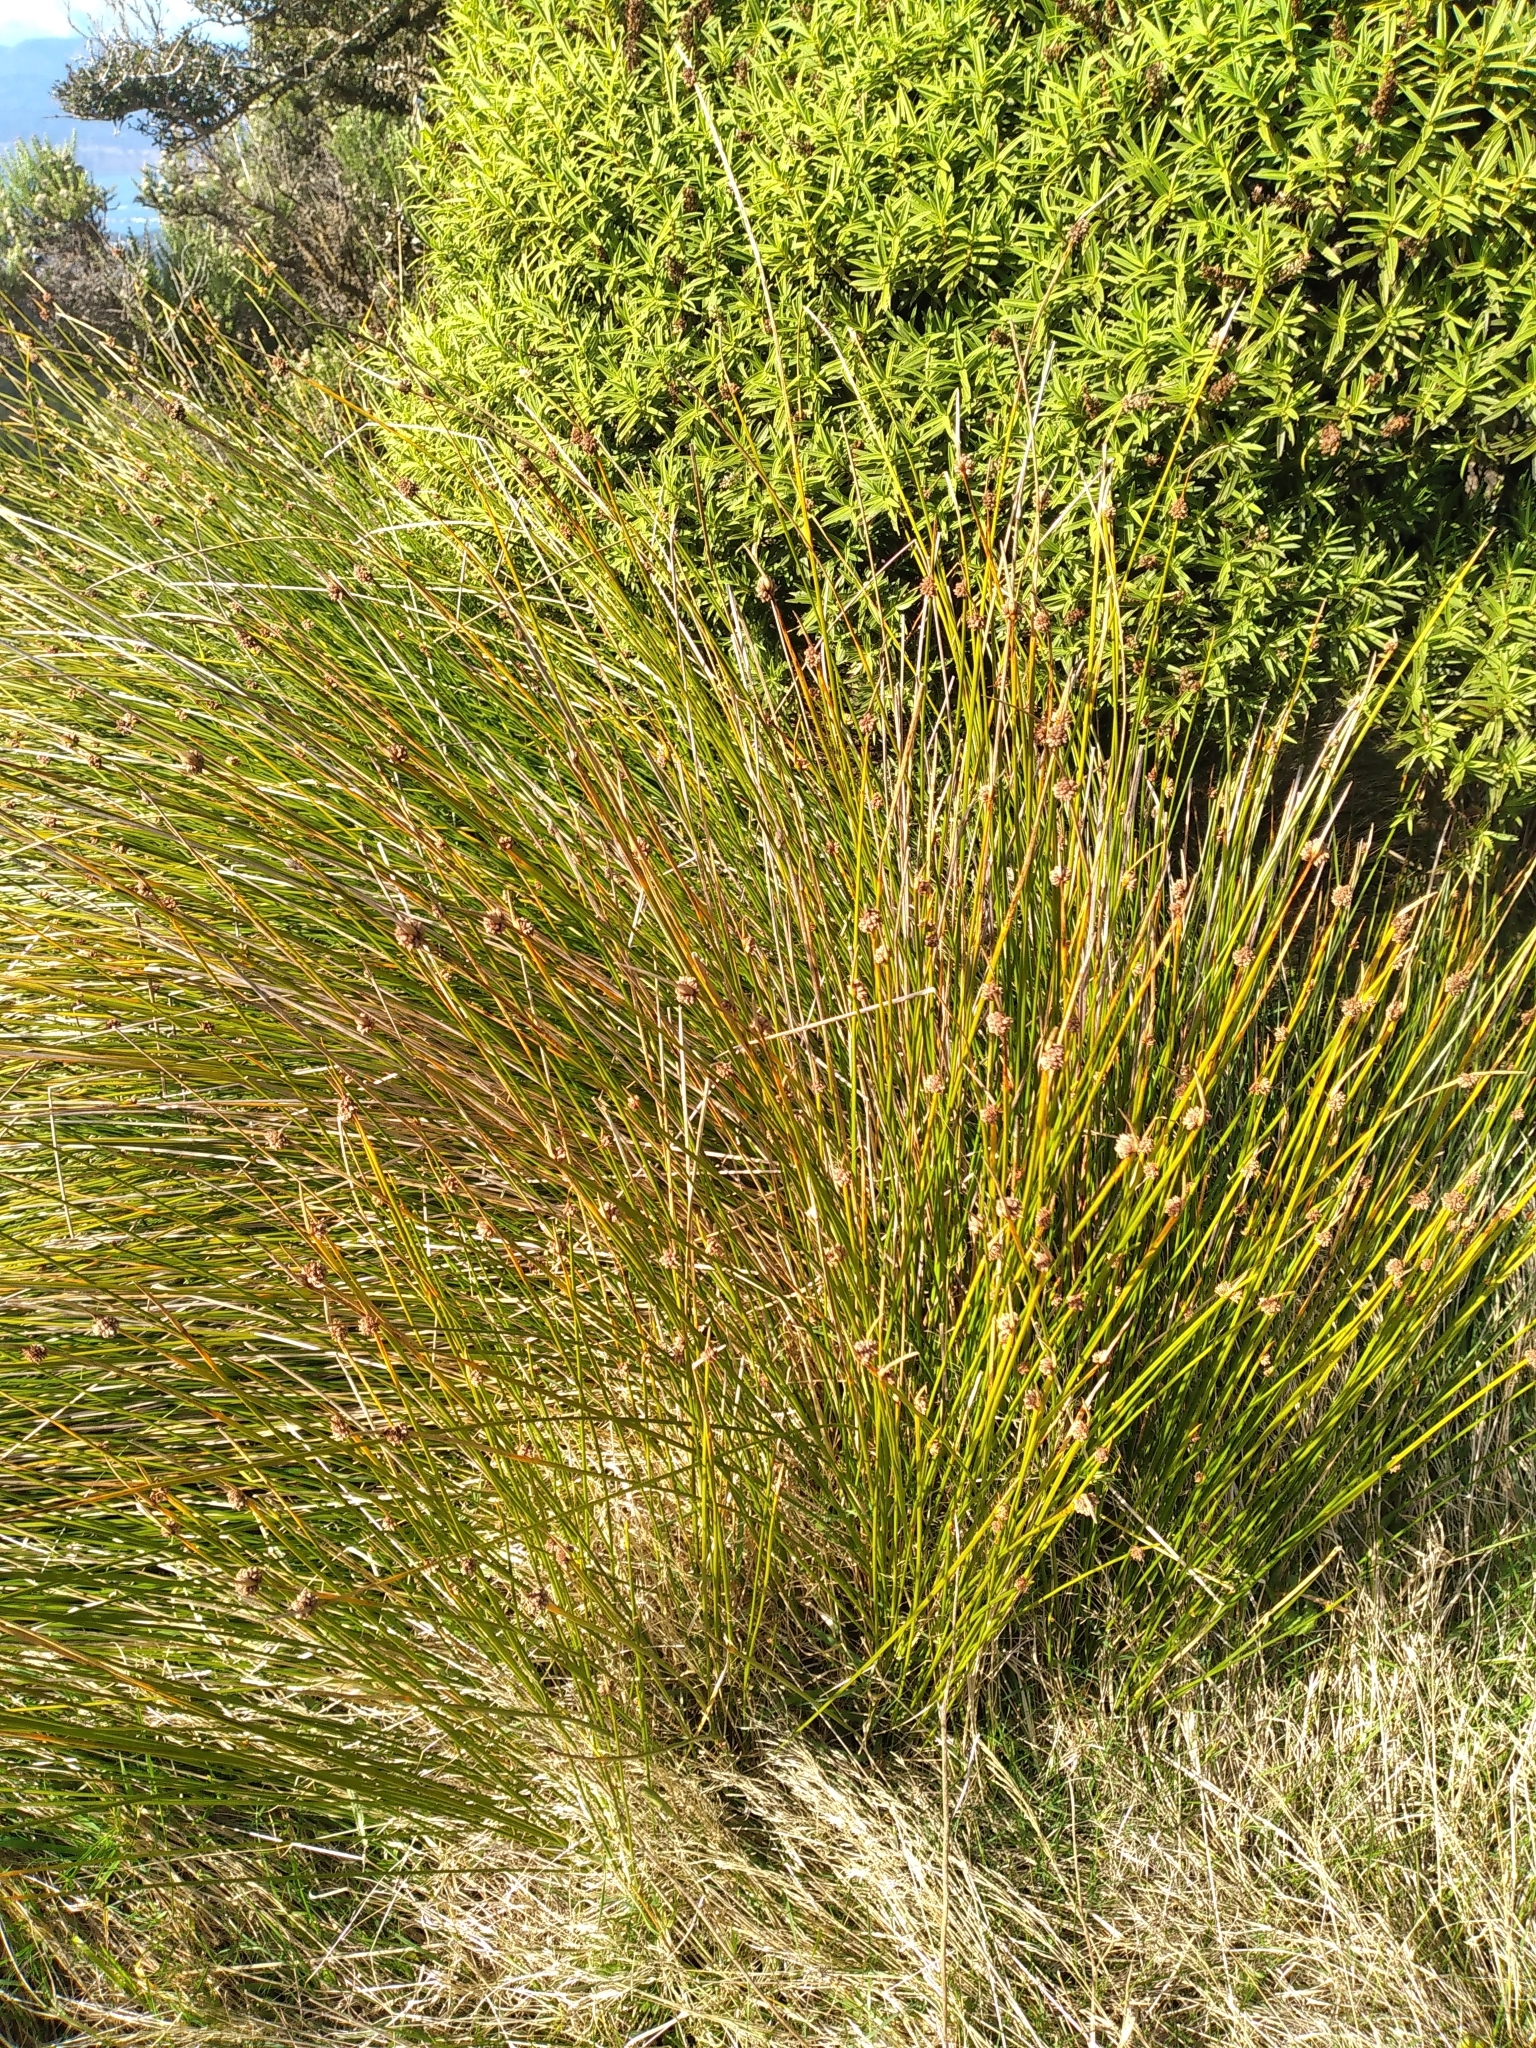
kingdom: Plantae
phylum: Tracheophyta
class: Liliopsida
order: Poales
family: Cyperaceae
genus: Ficinia
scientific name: Ficinia nodosa
